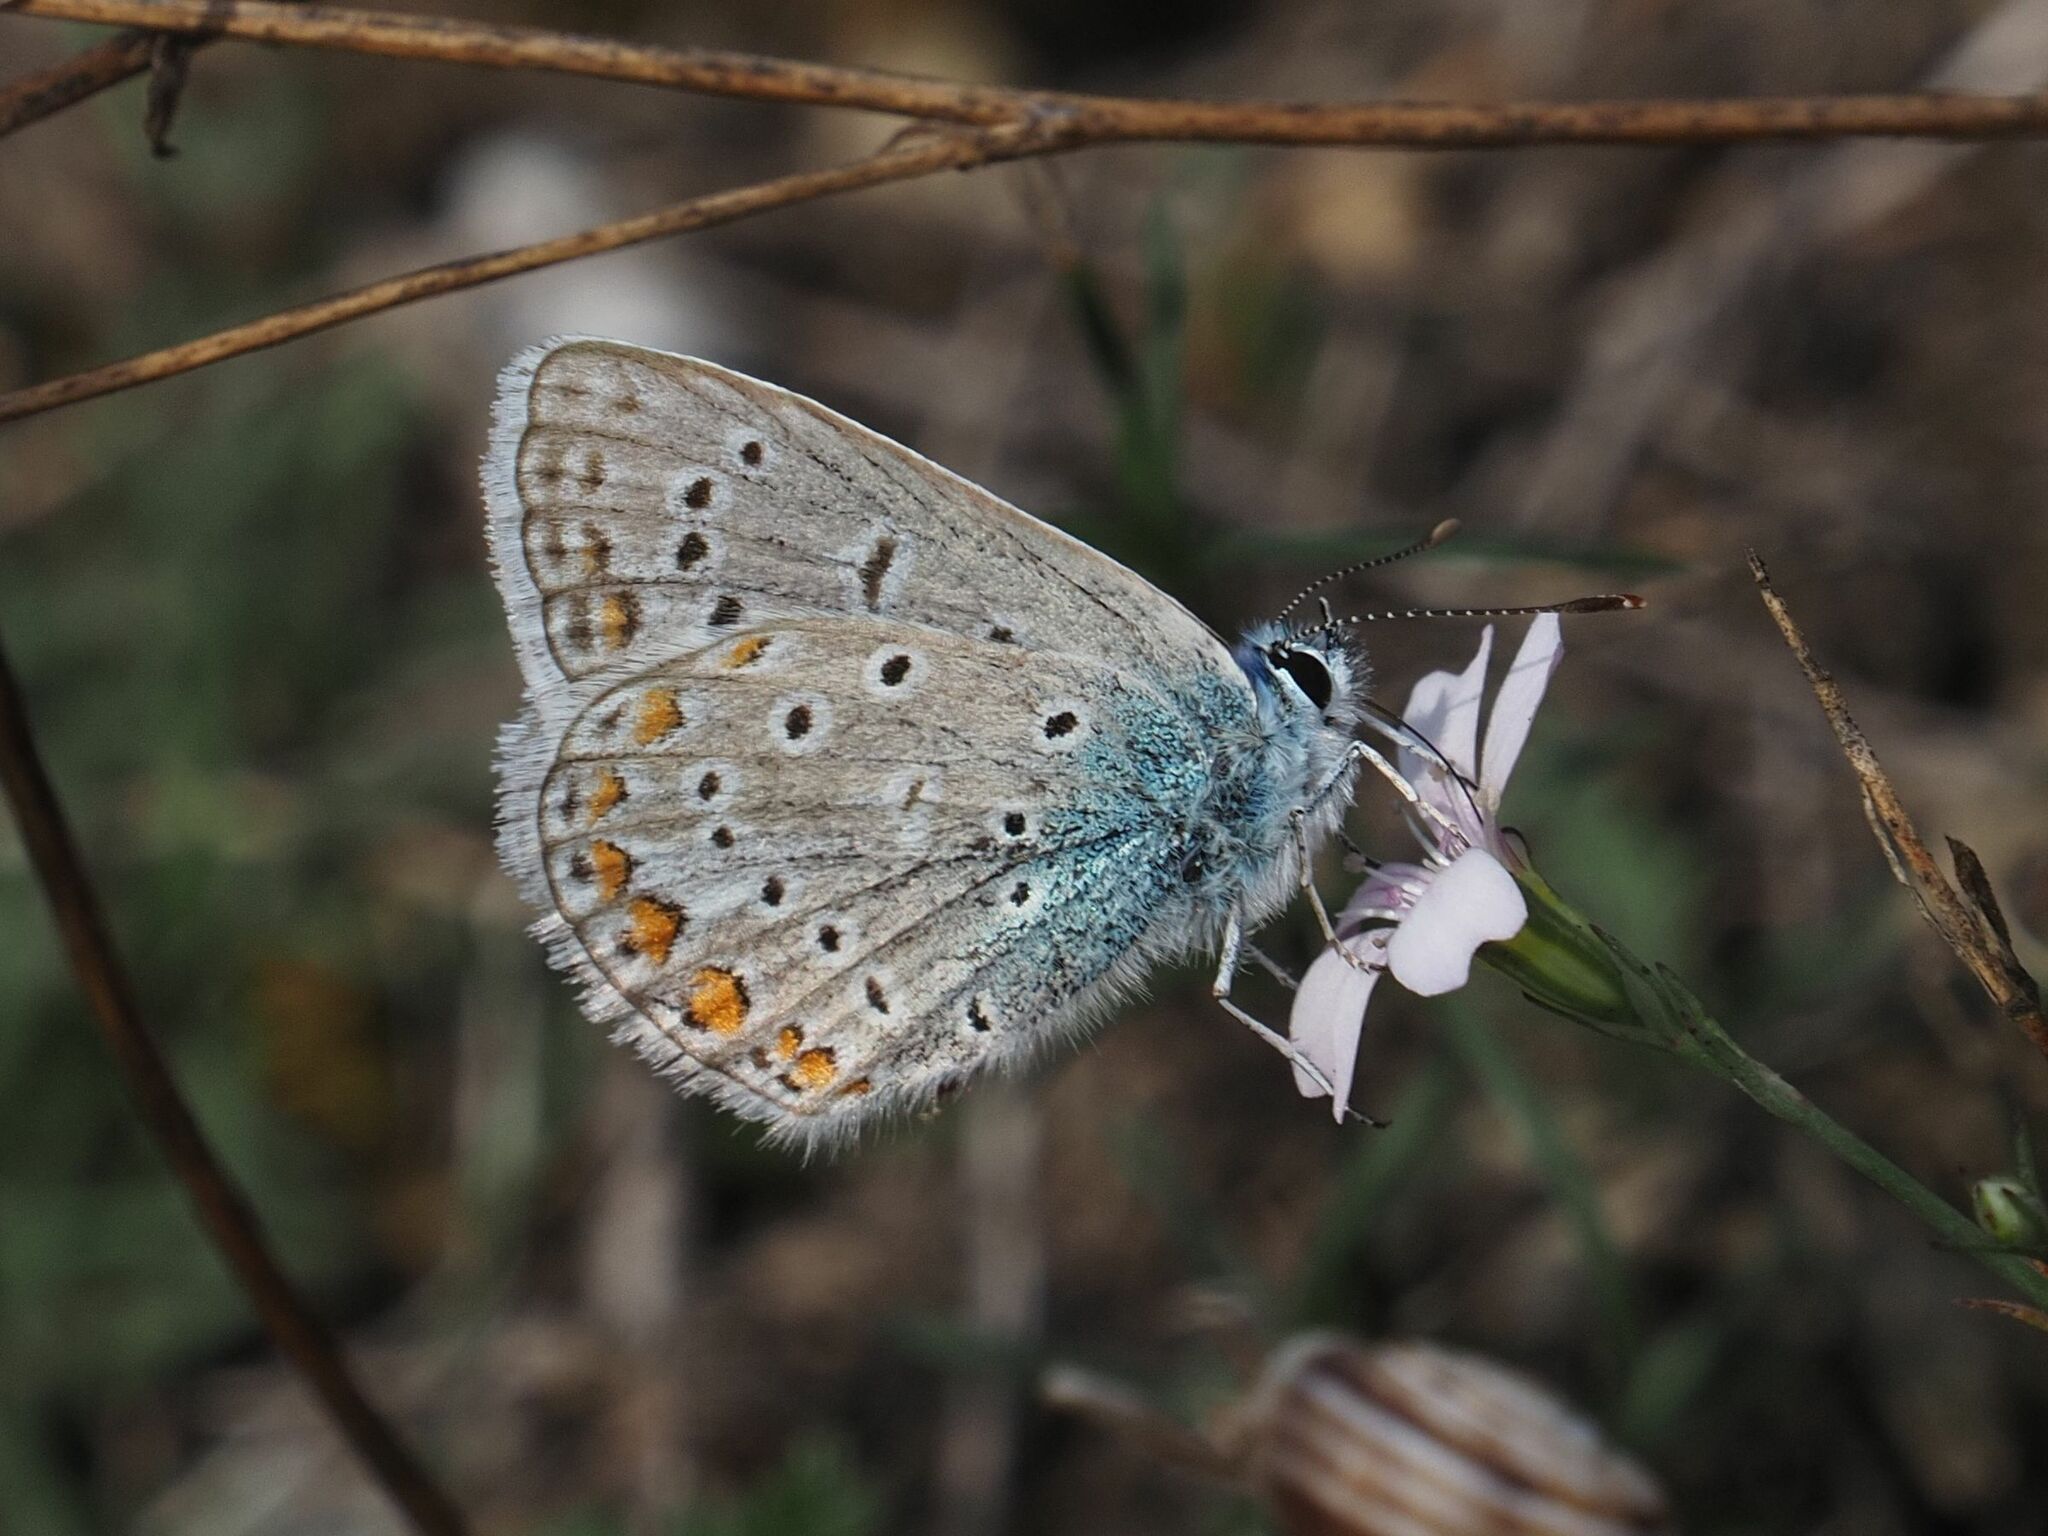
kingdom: Animalia
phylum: Arthropoda
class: Insecta
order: Lepidoptera
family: Lycaenidae
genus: Polyommatus
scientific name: Polyommatus icarus
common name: Common blue
